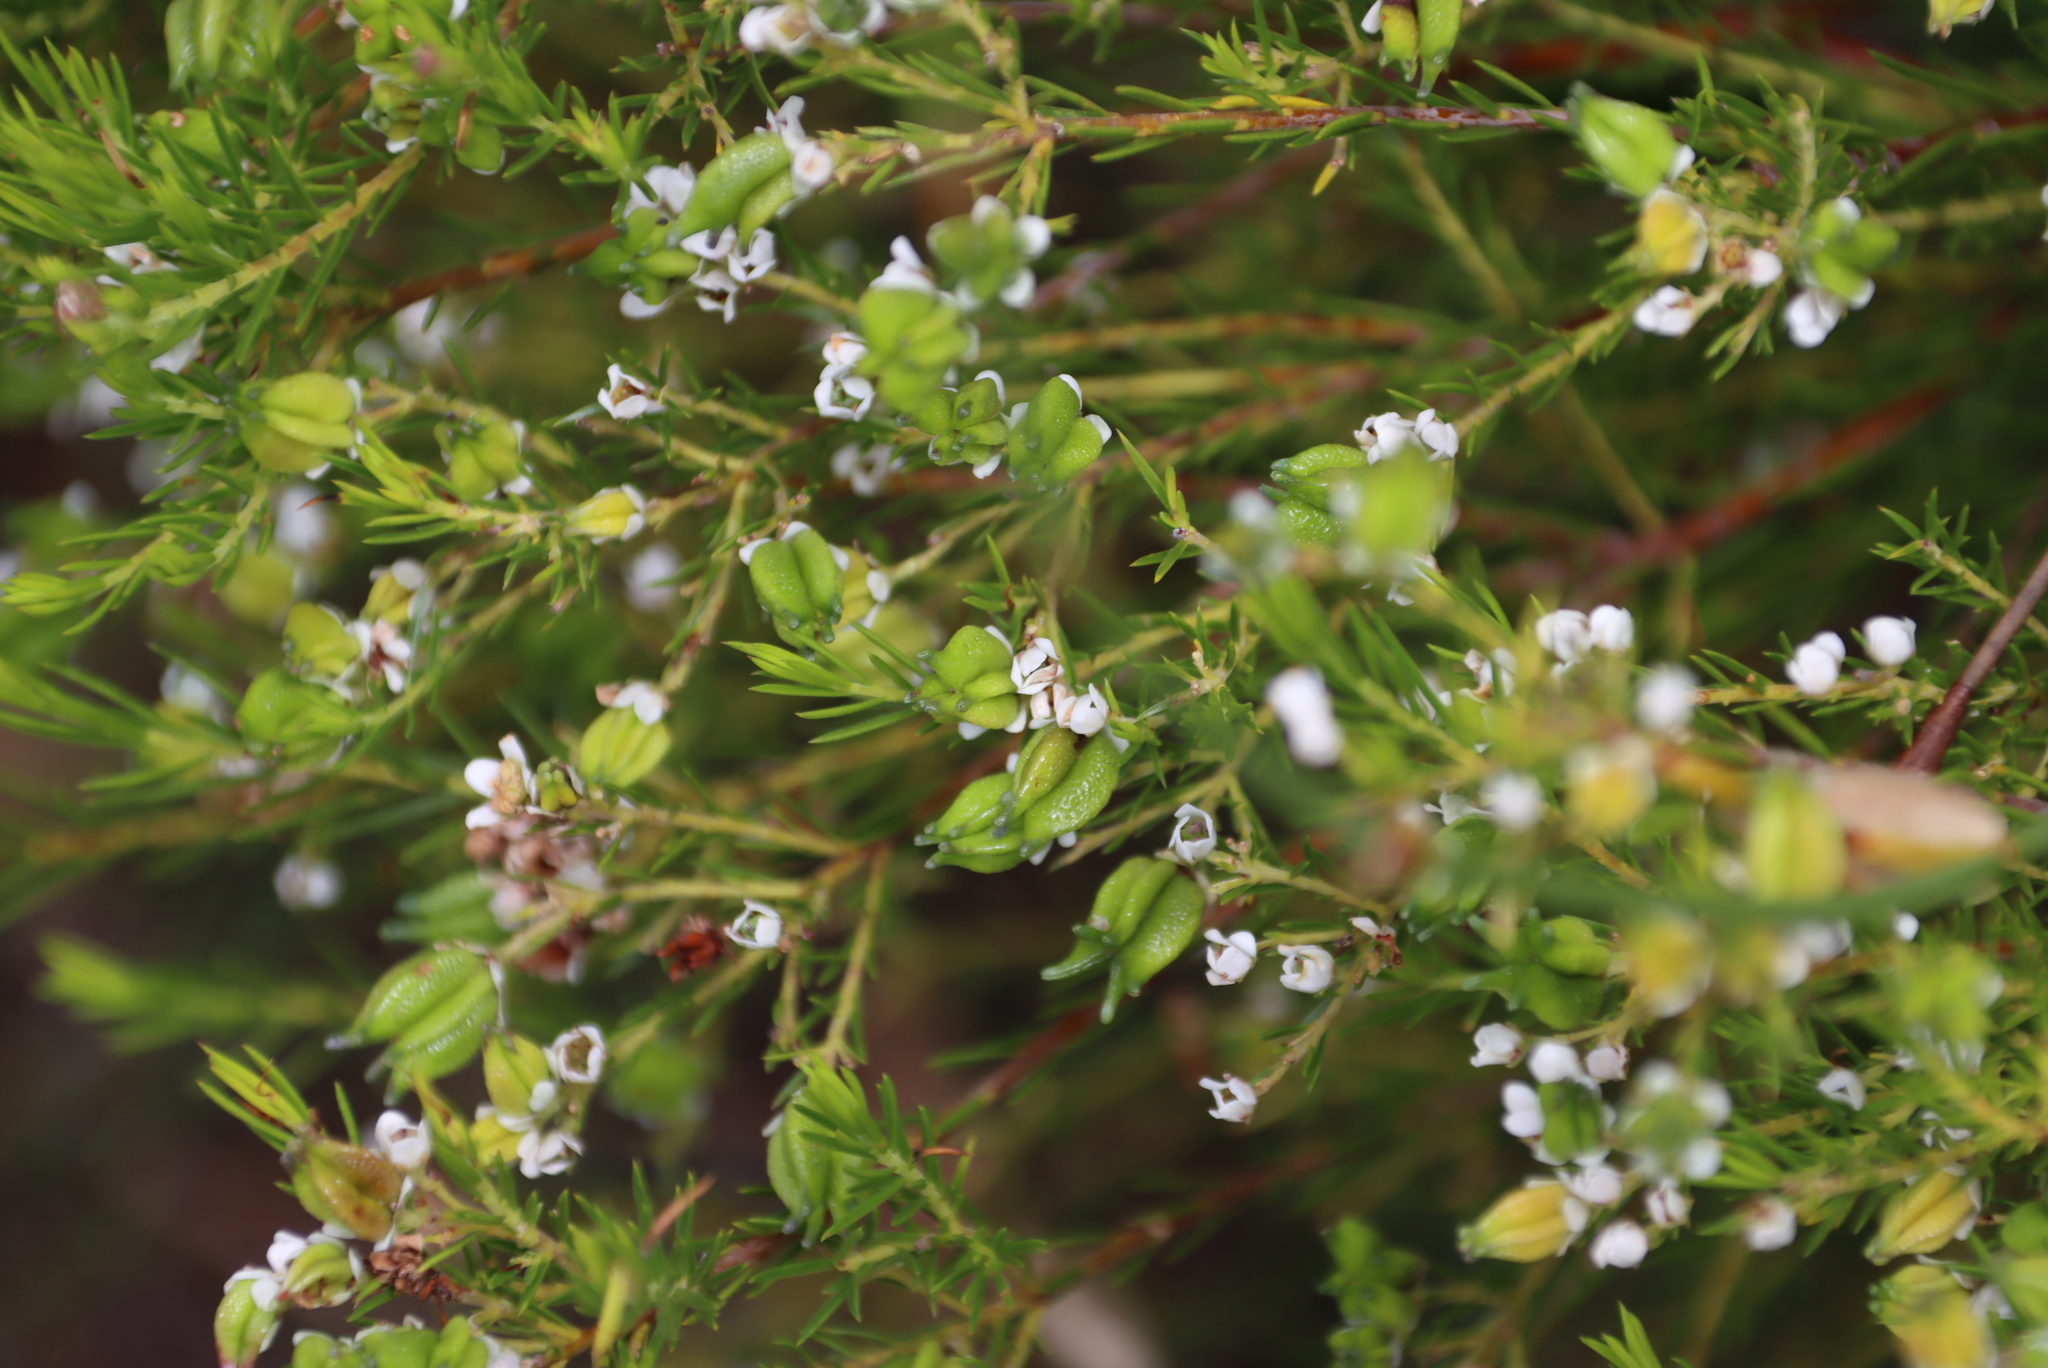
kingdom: Plantae
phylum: Tracheophyta
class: Magnoliopsida
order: Sapindales
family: Rutaceae
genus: Diosma
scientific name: Diosma hirsuta
